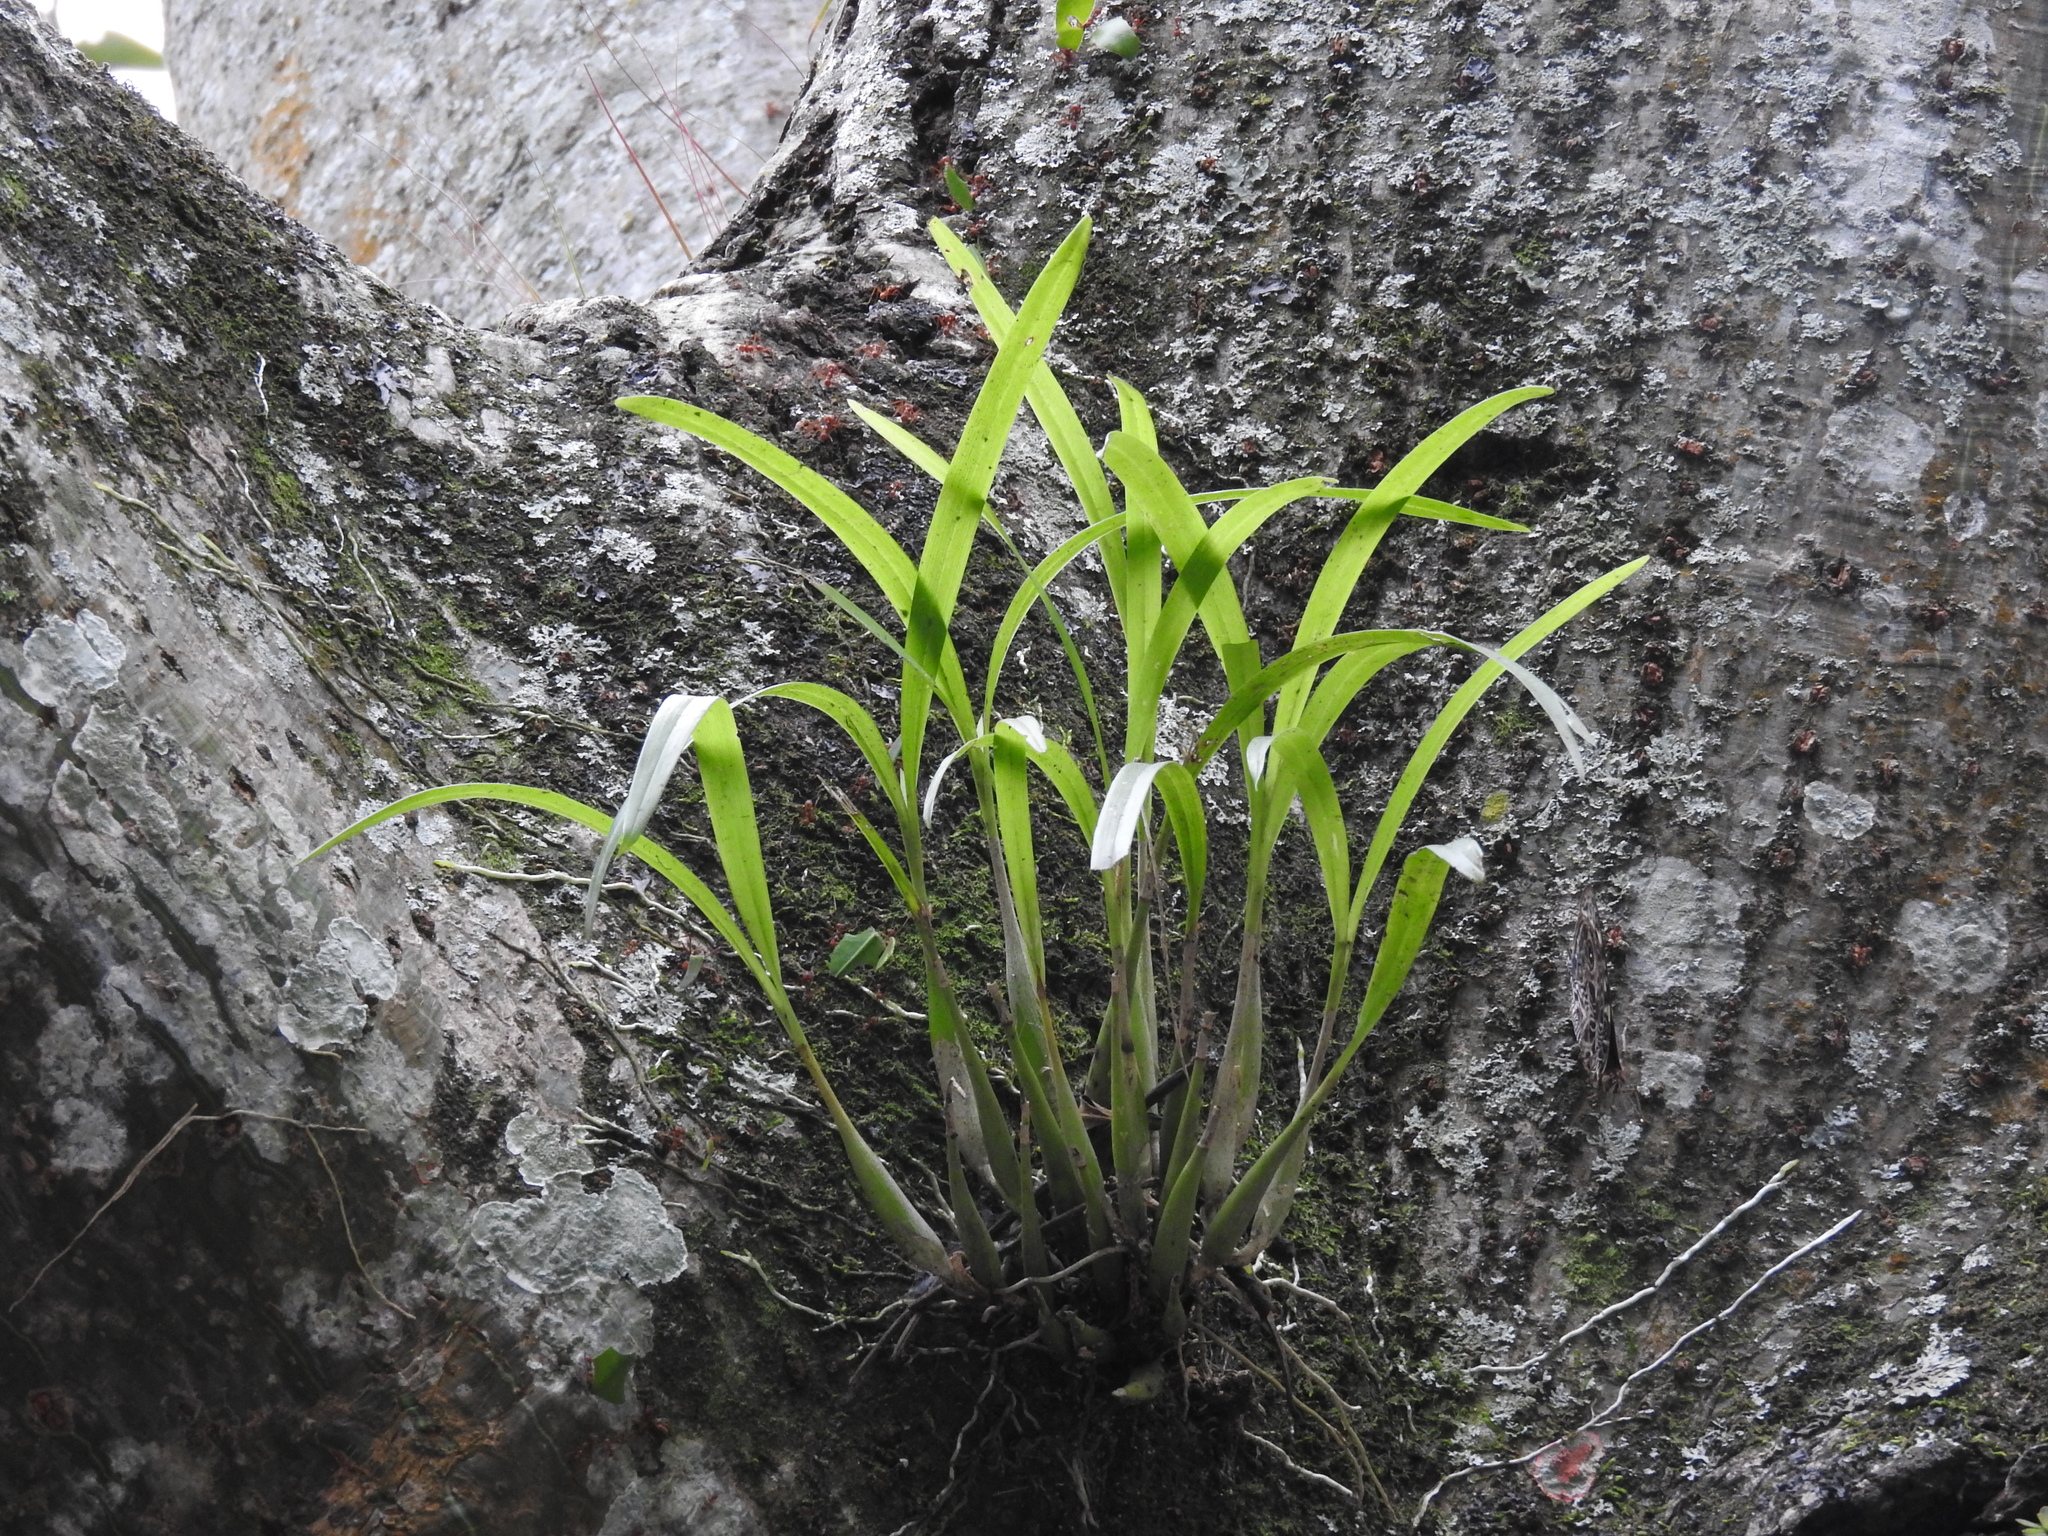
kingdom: Plantae
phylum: Tracheophyta
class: Liliopsida
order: Asparagales
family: Orchidaceae
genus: Prosthechea
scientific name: Prosthechea ochracea
